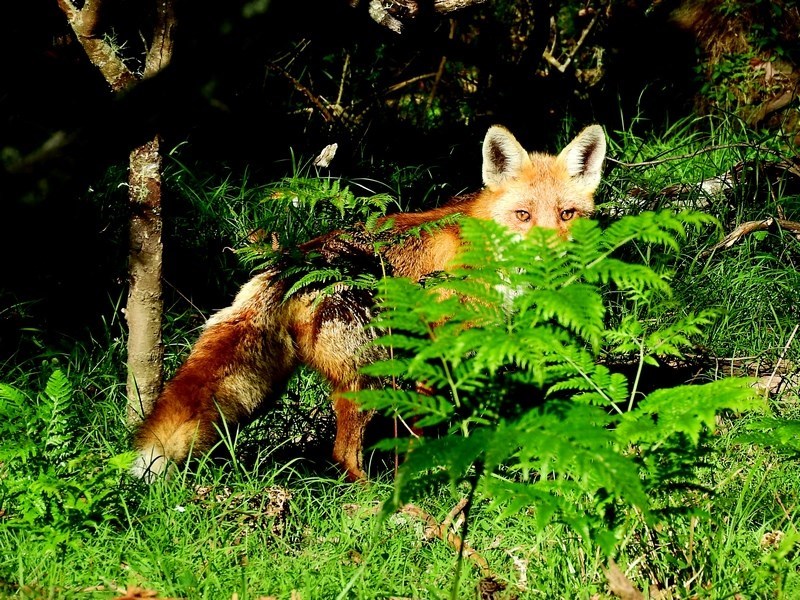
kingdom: Animalia
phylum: Chordata
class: Mammalia
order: Carnivora
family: Canidae
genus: Vulpes
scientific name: Vulpes vulpes
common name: Red fox
